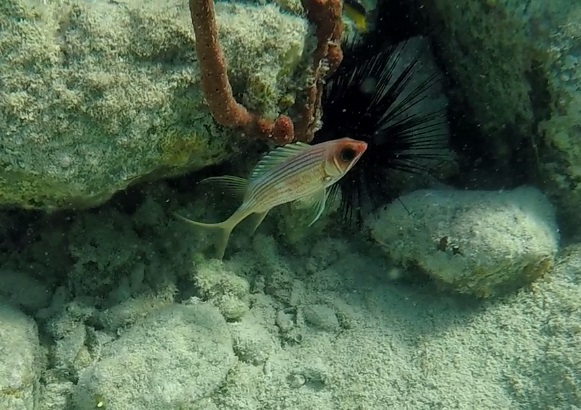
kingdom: Animalia
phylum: Chordata
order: Beryciformes
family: Holocentridae
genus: Holocentrus
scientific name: Holocentrus rufus
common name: Longspine squirrelfish
